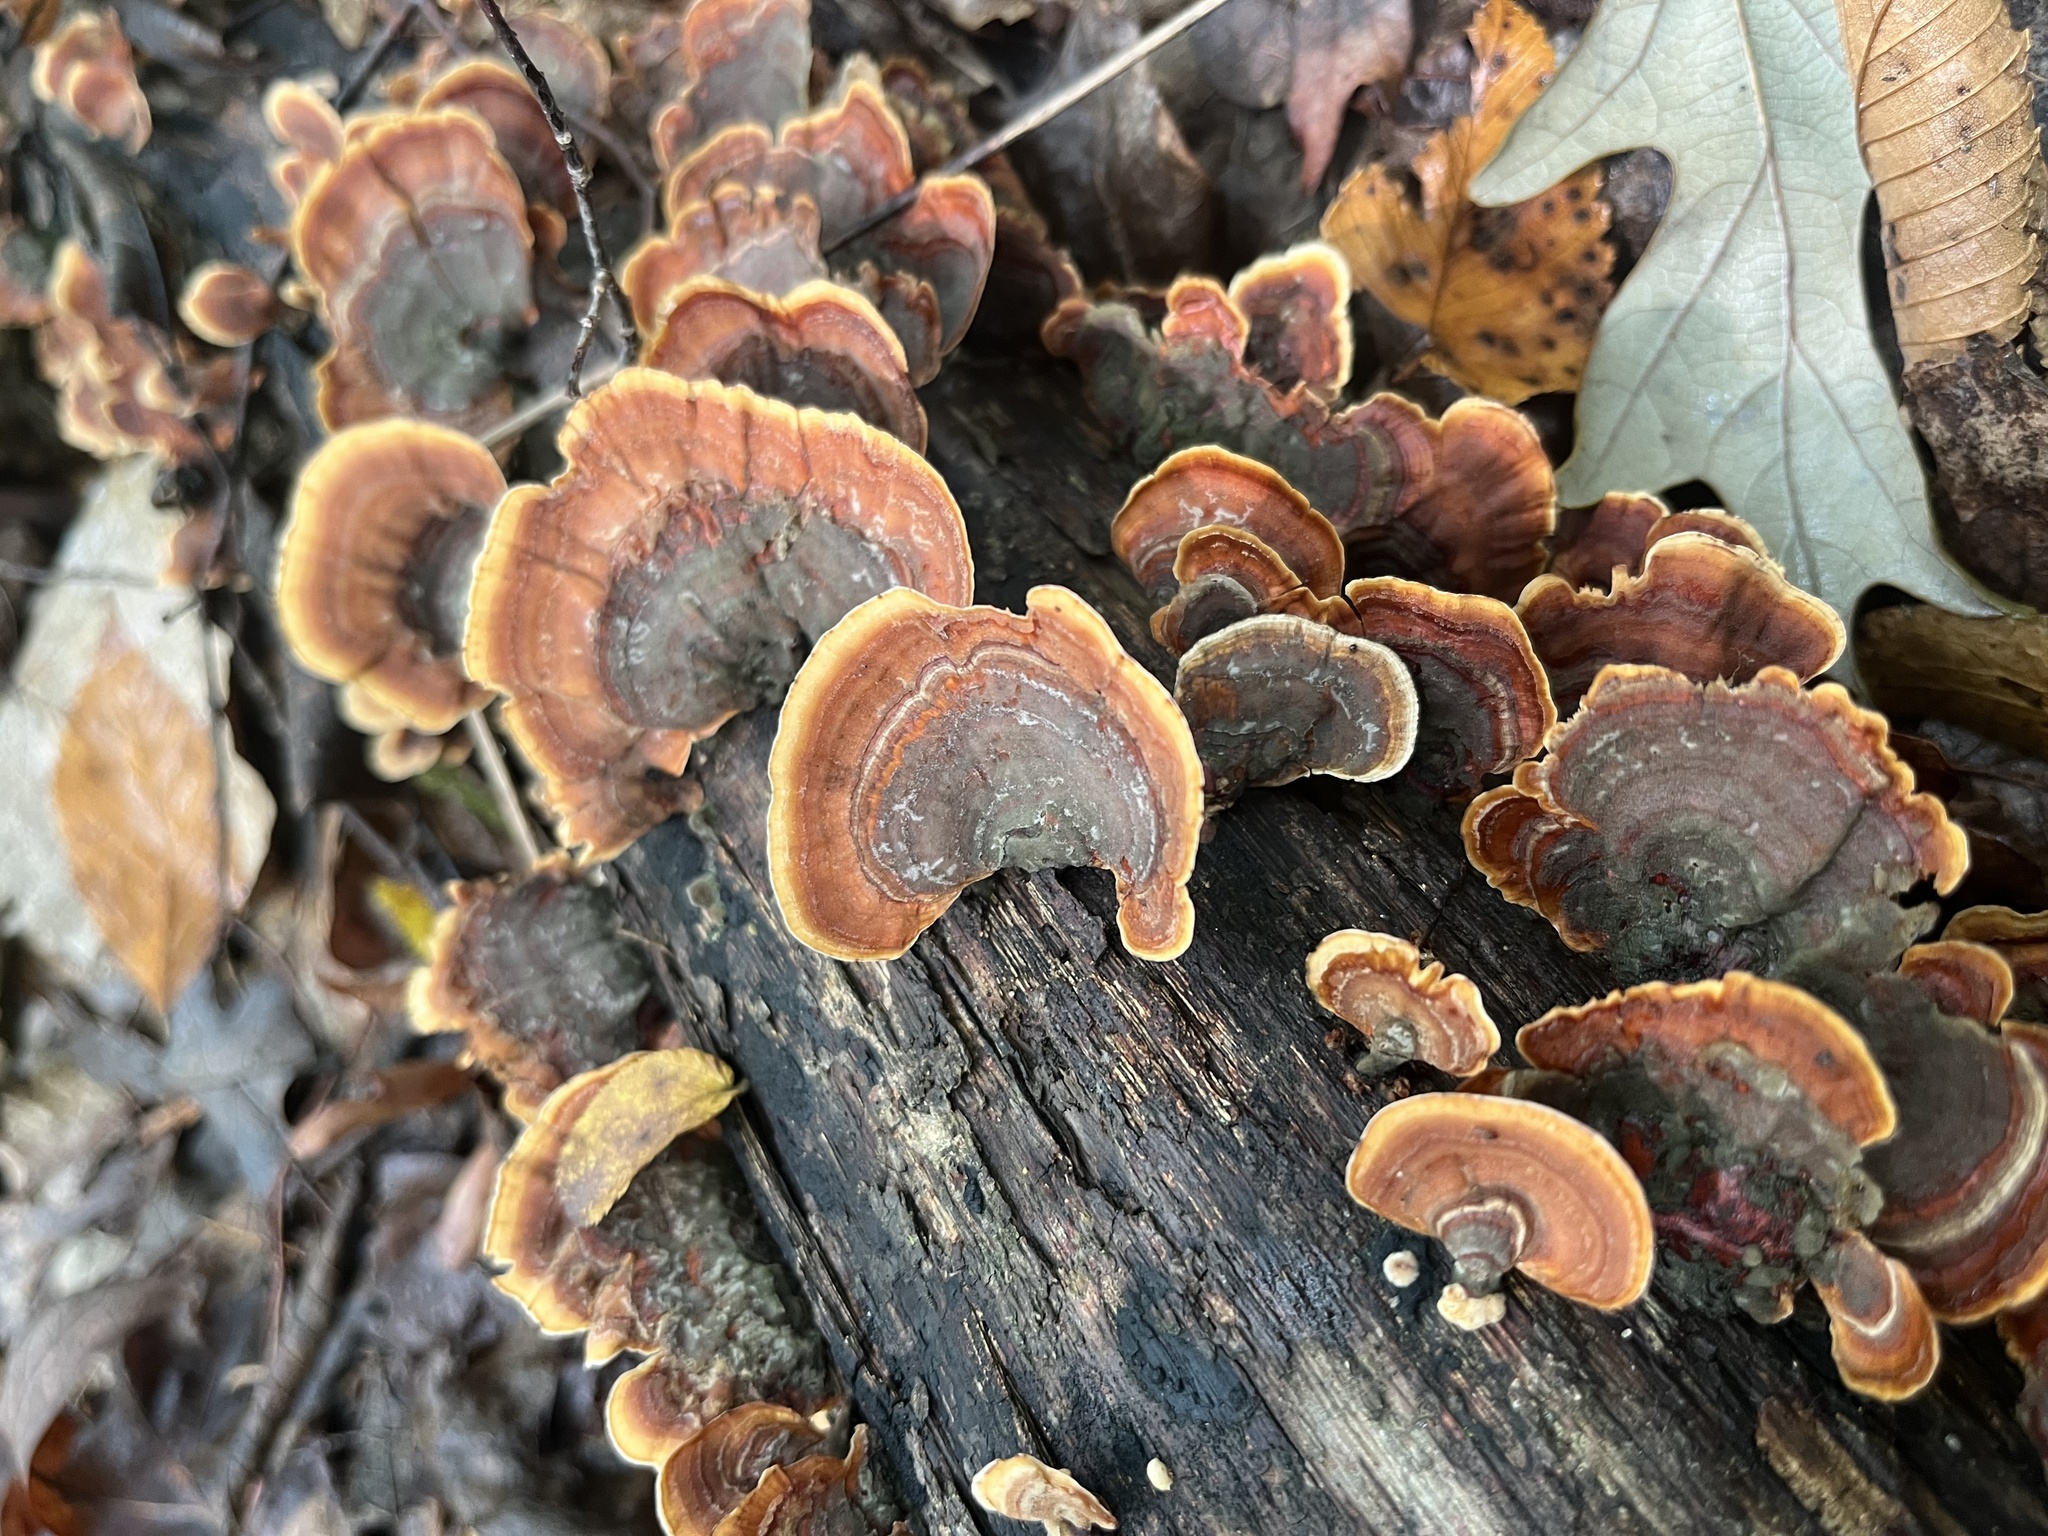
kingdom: Fungi
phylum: Basidiomycota
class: Agaricomycetes
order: Polyporales
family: Polyporaceae
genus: Trametes
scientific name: Trametes versicolor
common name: Turkeytail
